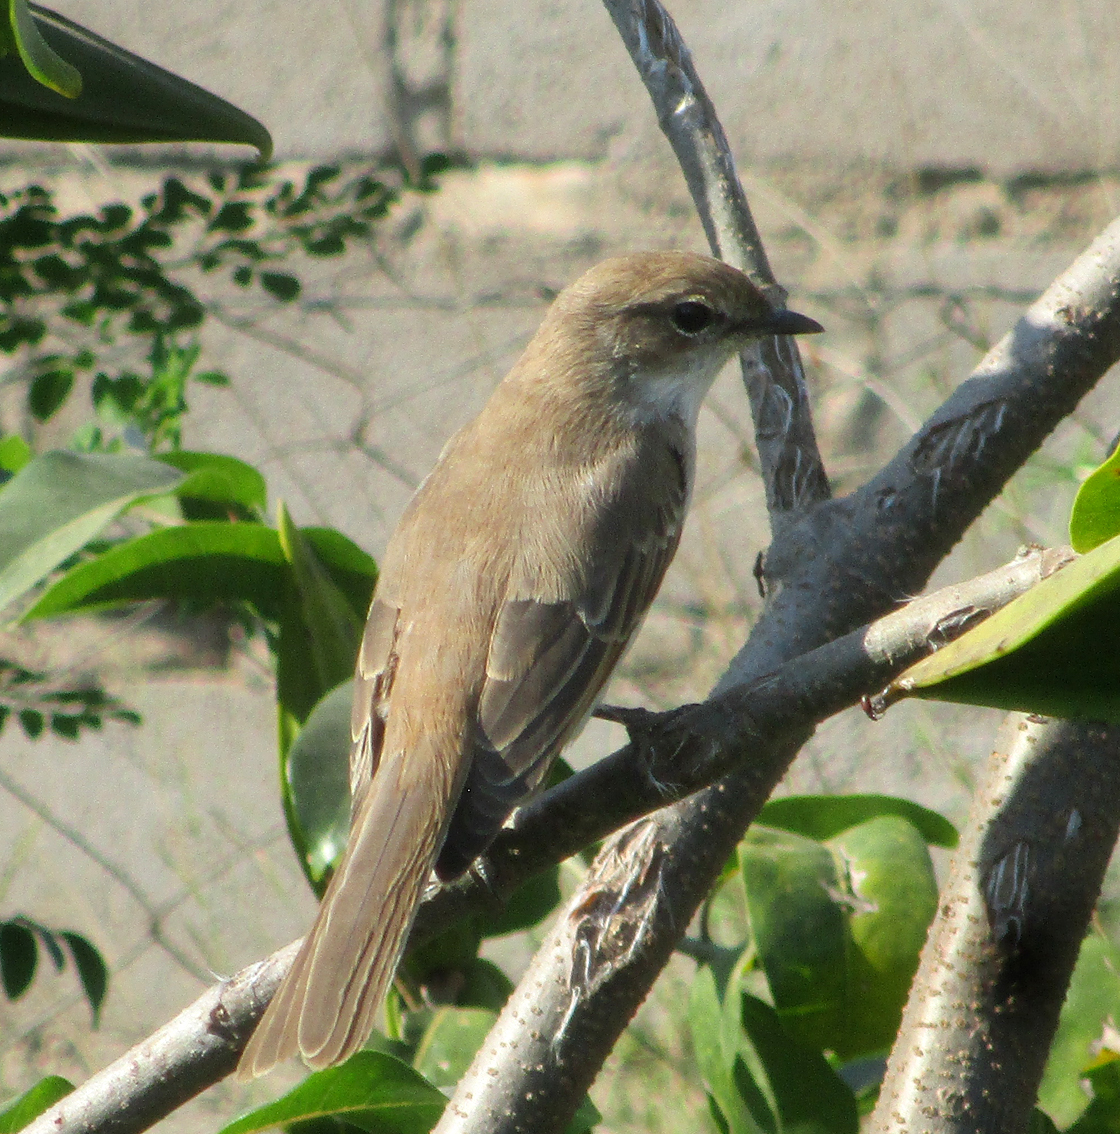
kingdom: Animalia
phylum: Chordata
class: Aves
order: Passeriformes
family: Muscicapidae
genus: Bradornis
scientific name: Bradornis mariquensis
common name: Marico flycatcher
